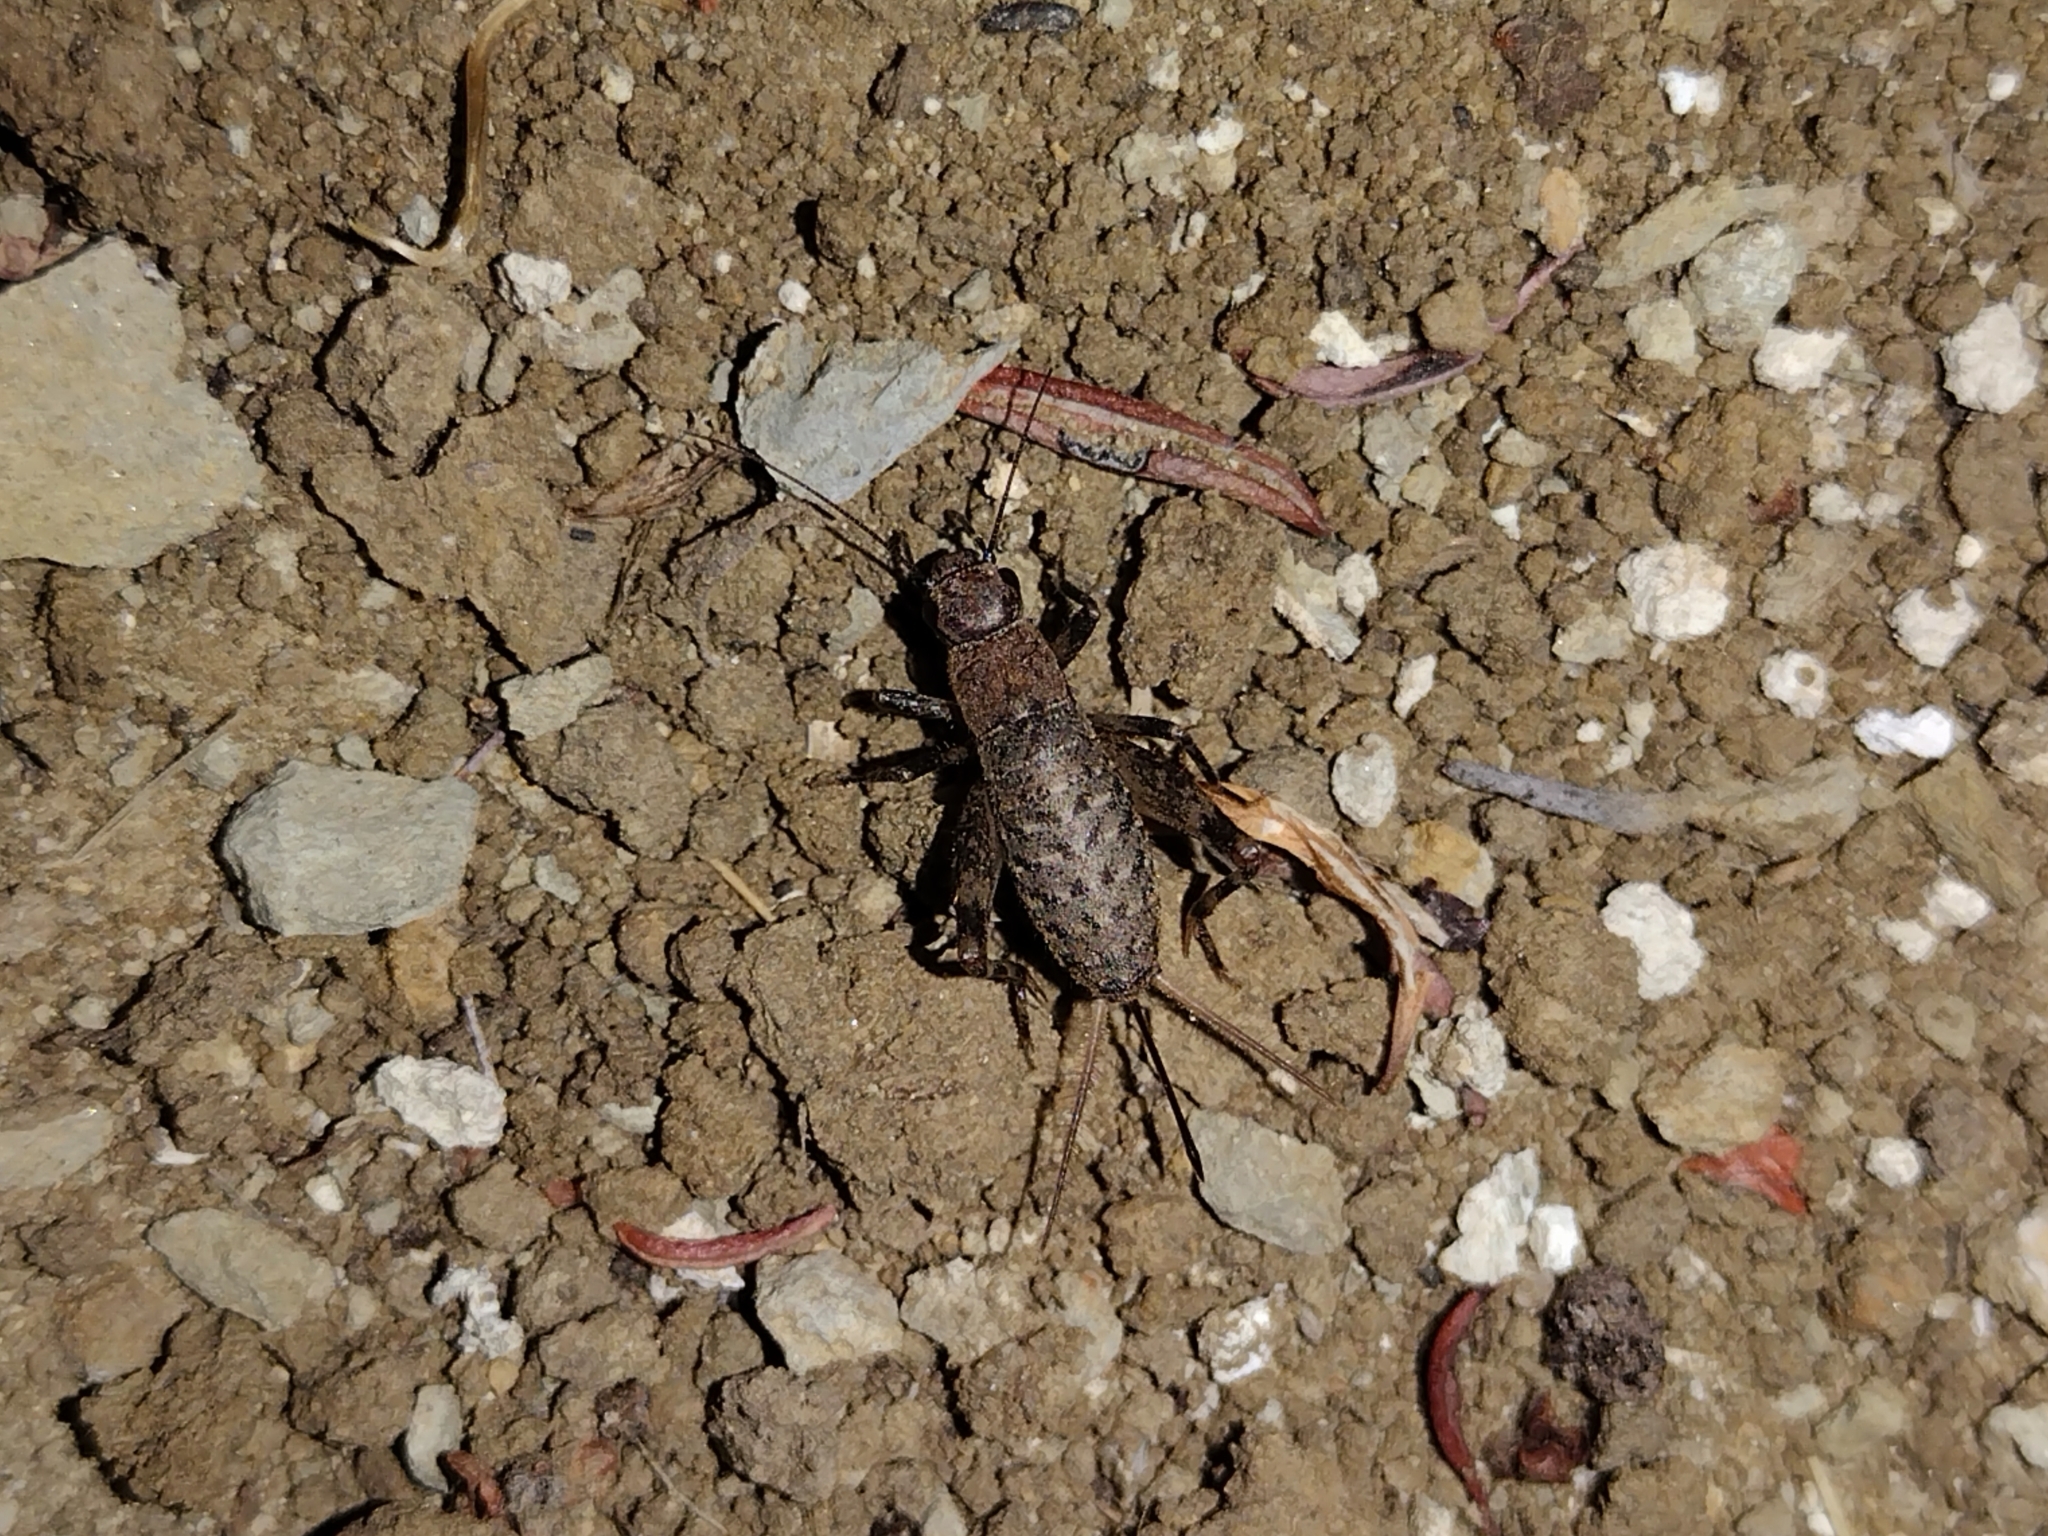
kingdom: Animalia
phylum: Arthropoda
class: Insecta
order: Orthoptera
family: Mogoplistidae
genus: Hoplosphyrum
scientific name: Hoplosphyrum boreale
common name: Long-winged scaly cricket
